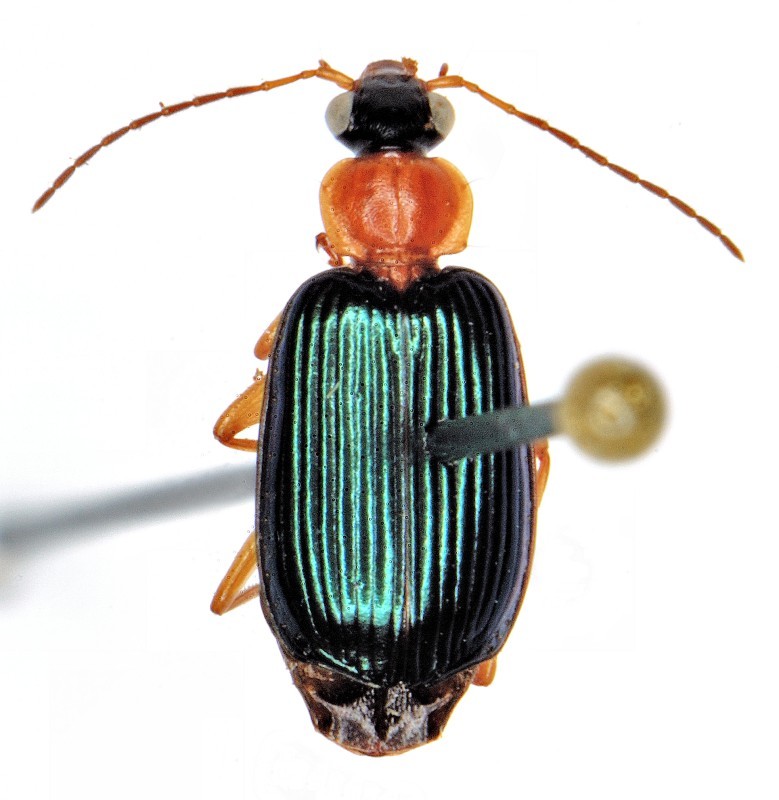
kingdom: Animalia
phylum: Arthropoda
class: Insecta
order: Coleoptera
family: Carabidae
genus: Lebia
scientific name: Lebia tricolor
